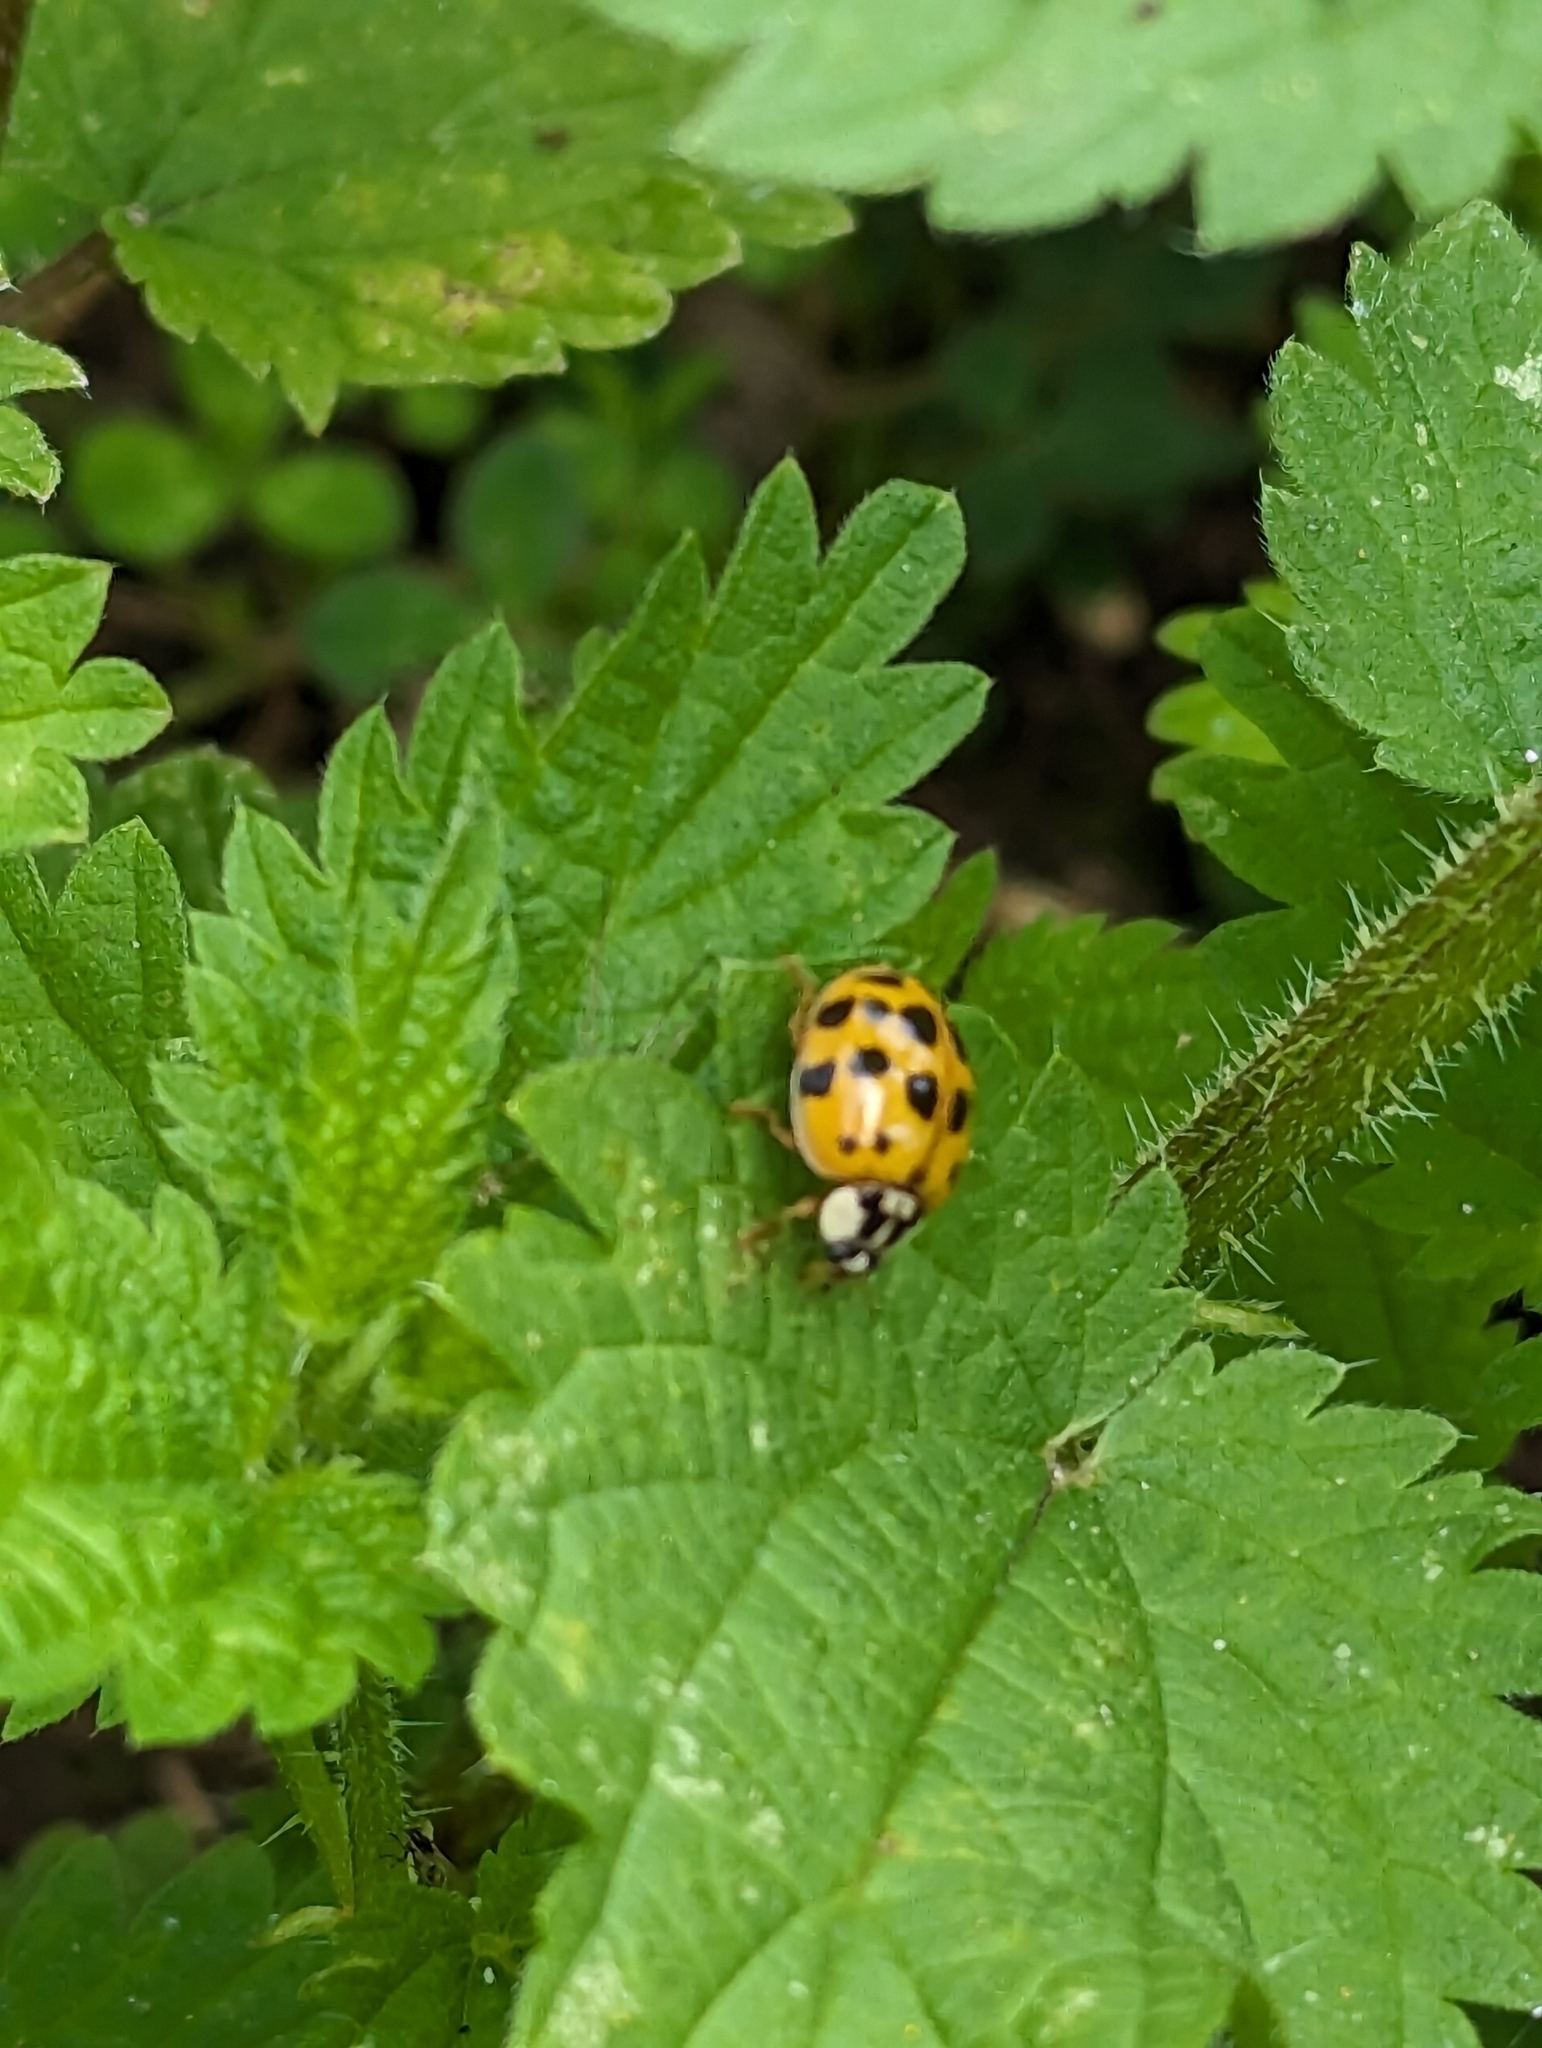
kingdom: Animalia
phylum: Arthropoda
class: Insecta
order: Coleoptera
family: Coccinellidae
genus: Harmonia
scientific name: Harmonia axyridis
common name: Harlequin ladybird
